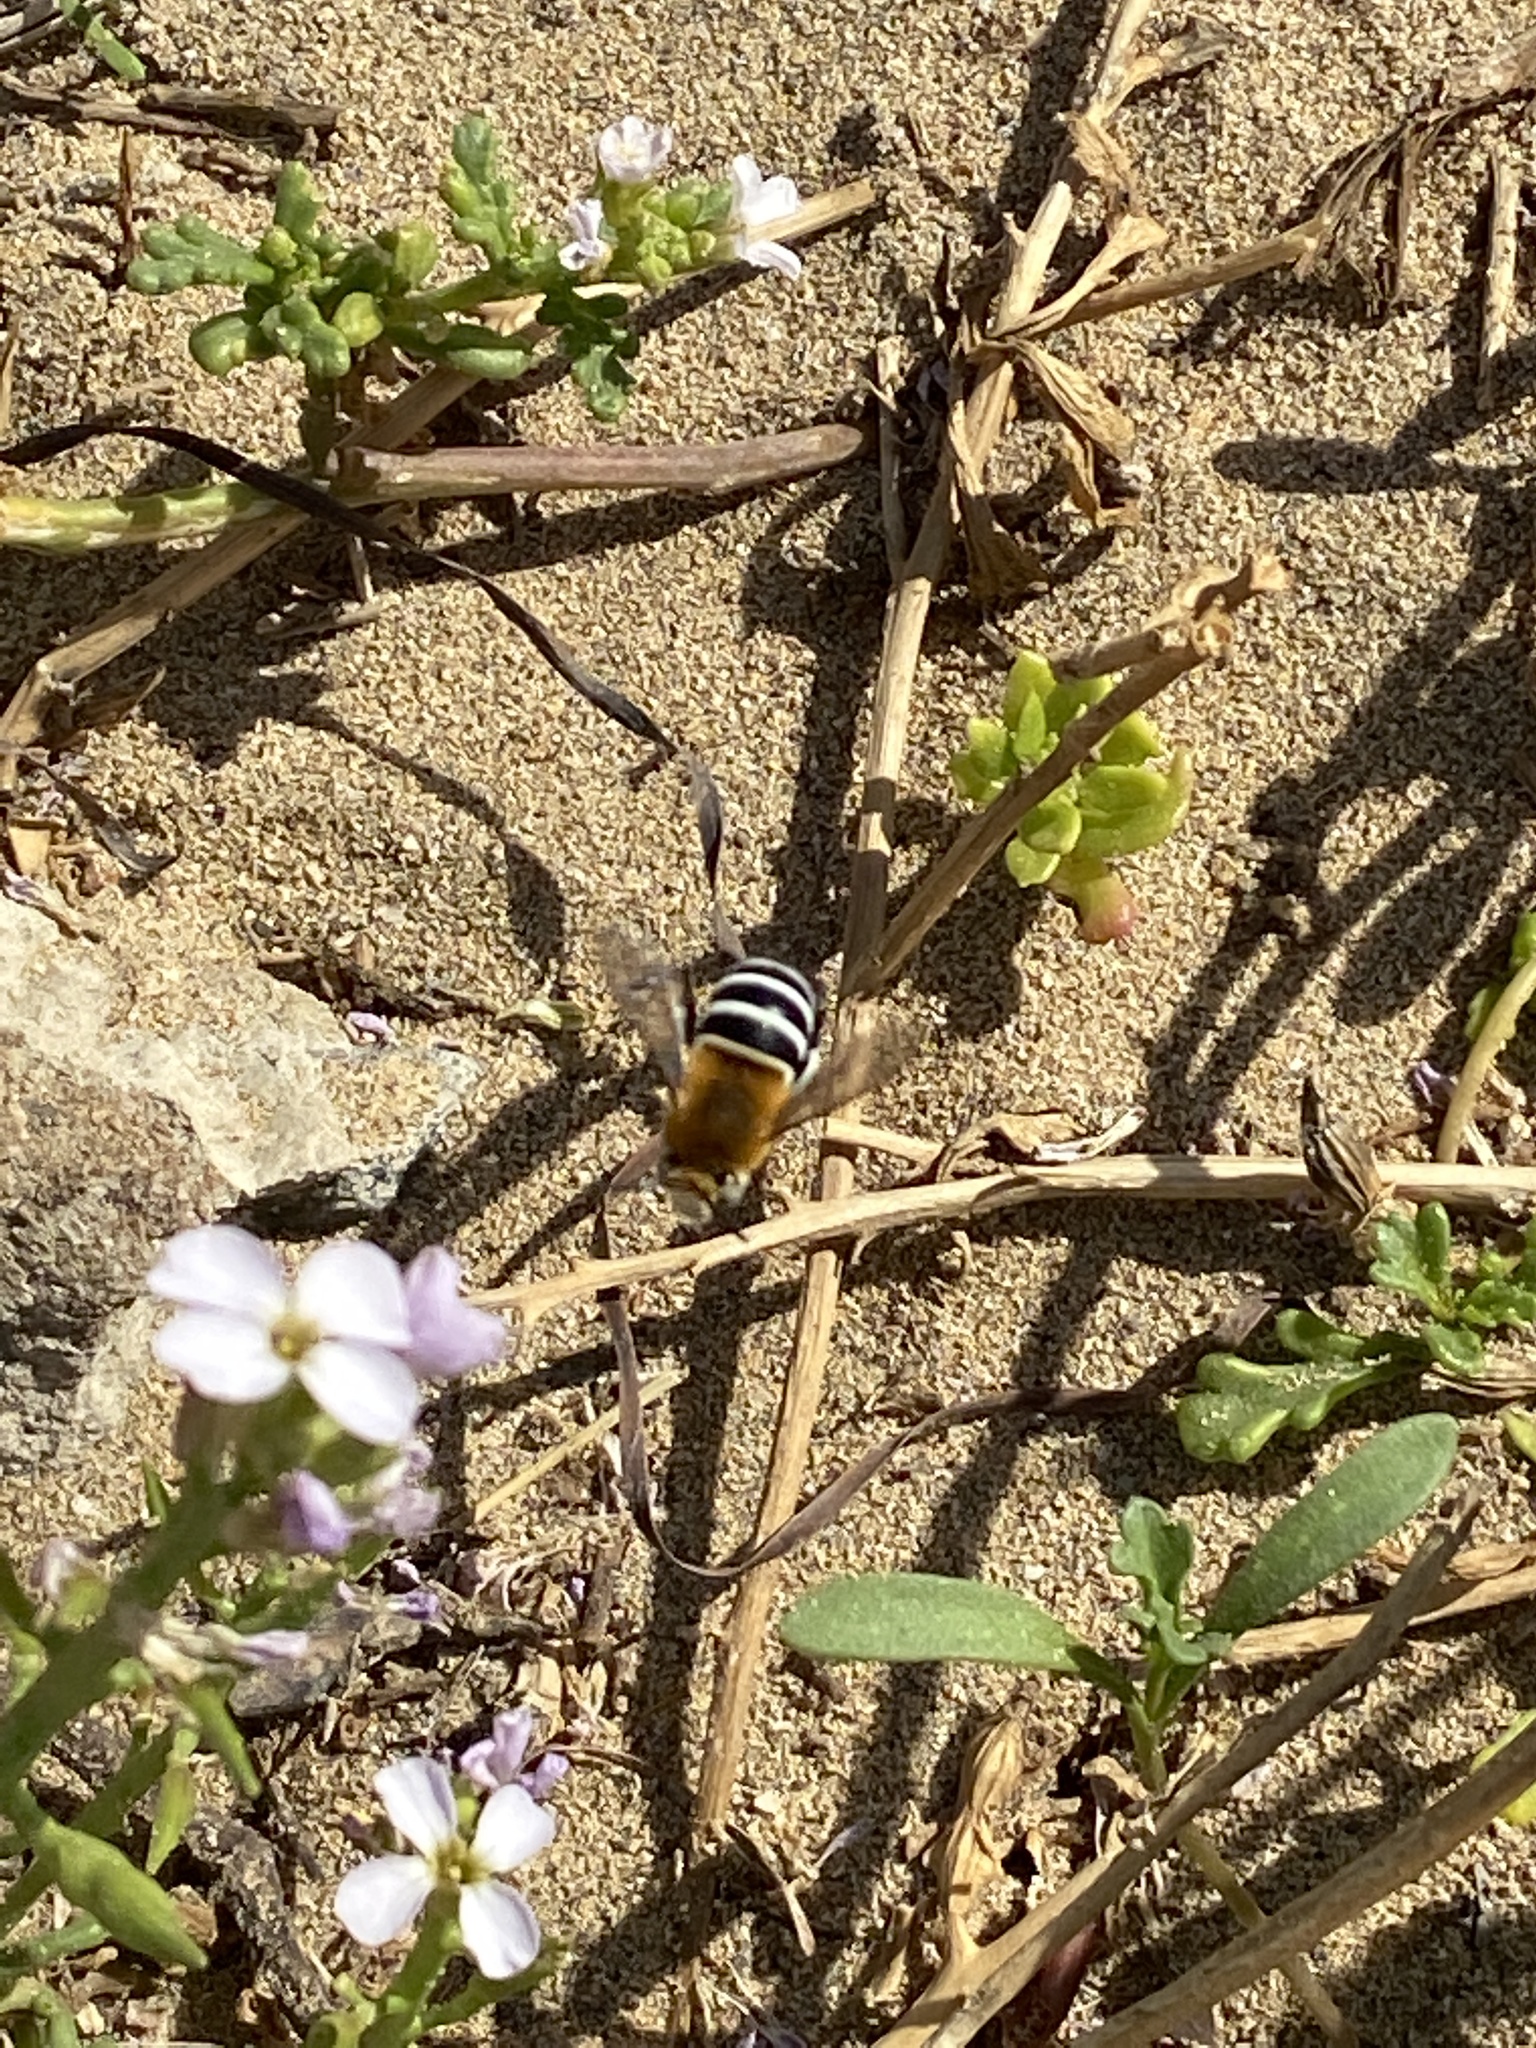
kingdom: Animalia
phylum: Arthropoda
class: Insecta
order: Hymenoptera
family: Apidae
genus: Amegilla
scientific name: Amegilla quadrifasciata
